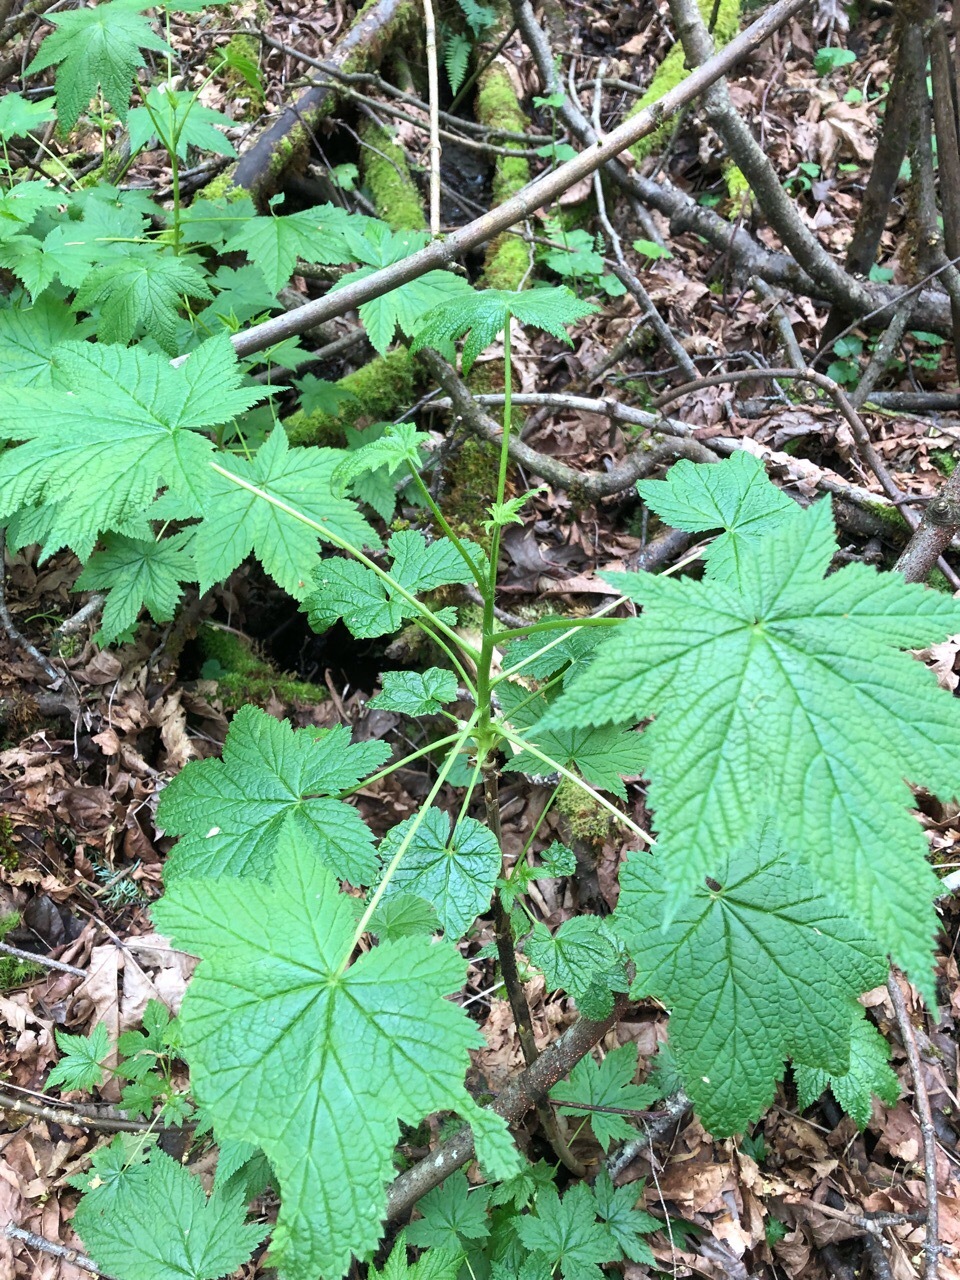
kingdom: Plantae
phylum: Tracheophyta
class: Magnoliopsida
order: Saxifragales
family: Grossulariaceae
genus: Ribes
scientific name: Ribes bracteosum
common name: California black currant
